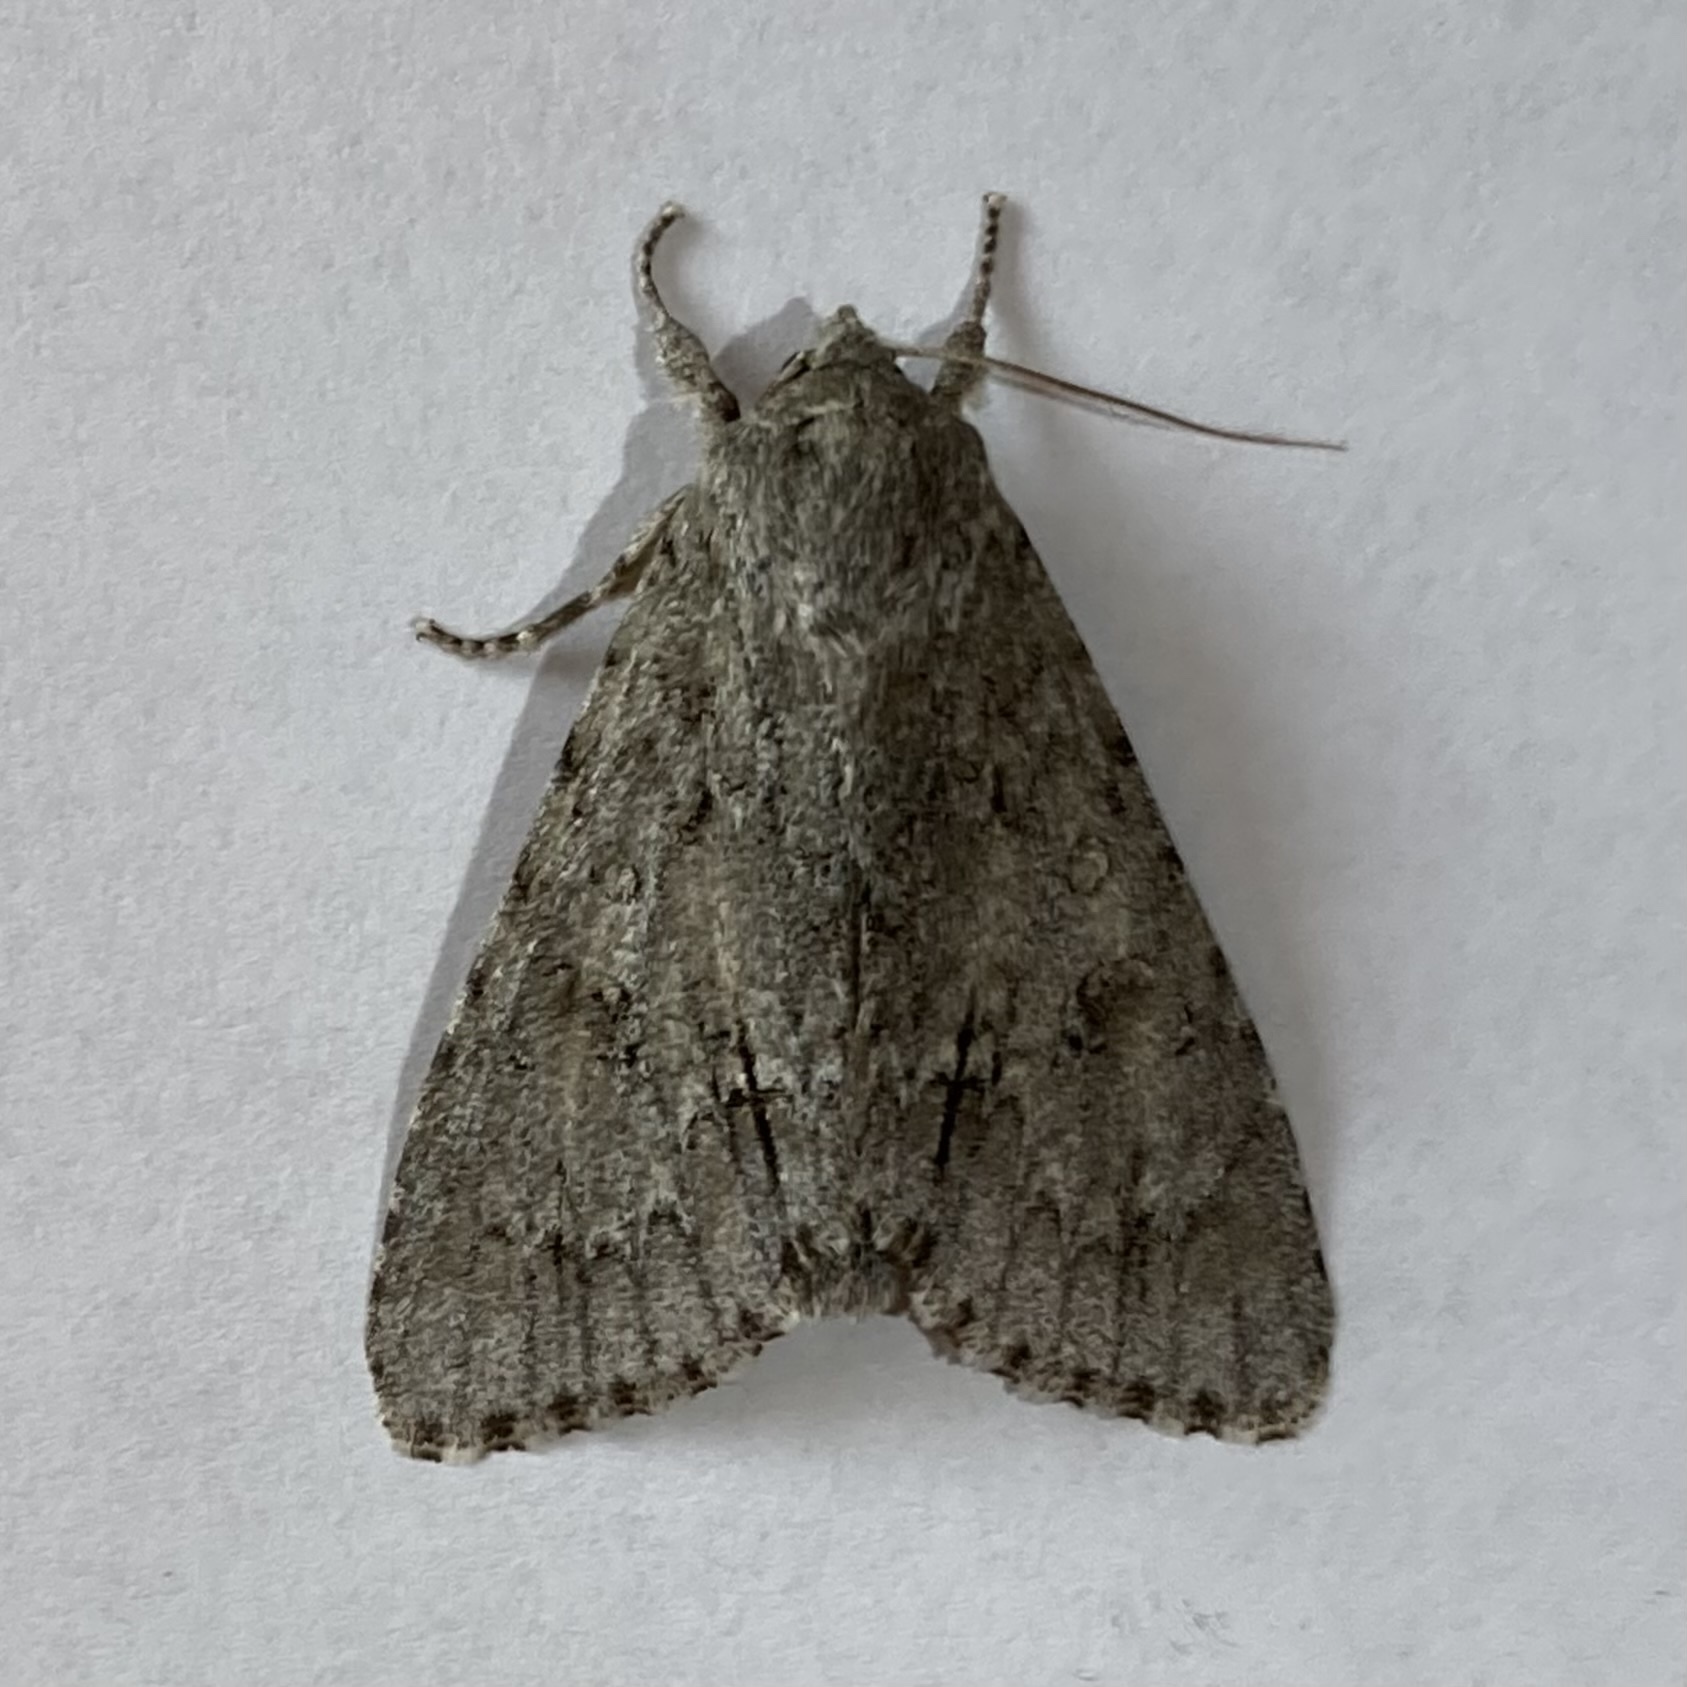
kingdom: Animalia
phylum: Arthropoda
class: Insecta
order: Lepidoptera
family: Noctuidae
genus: Acronicta
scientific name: Acronicta americana
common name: American dagger
